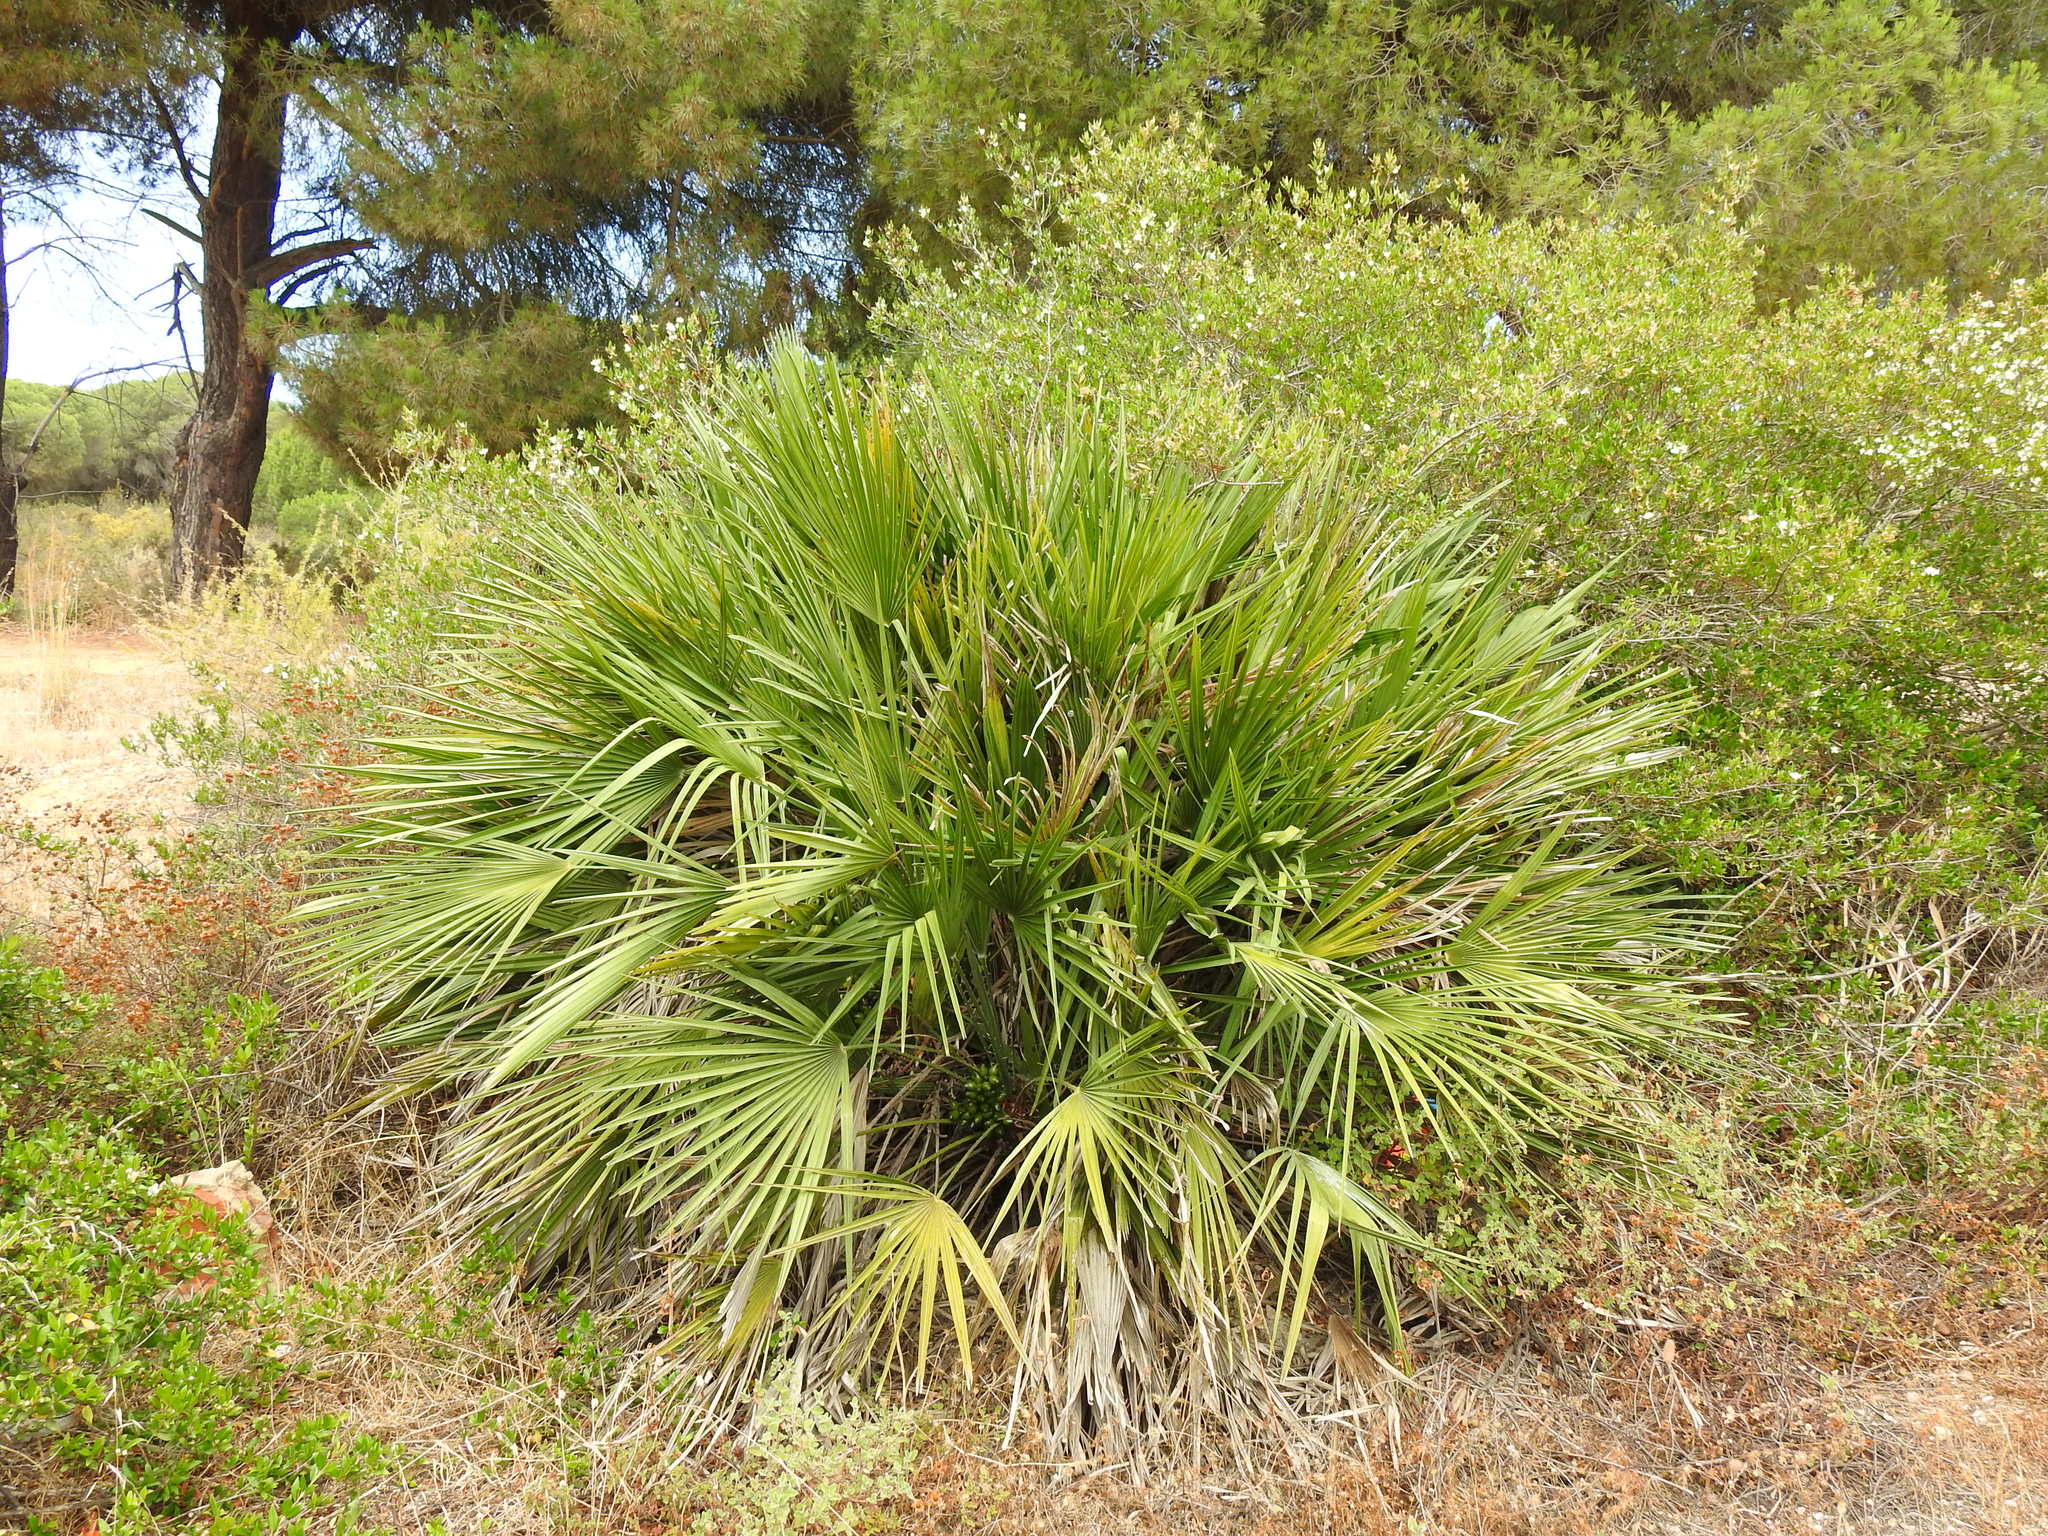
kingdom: Plantae
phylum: Tracheophyta
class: Liliopsida
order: Arecales
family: Arecaceae
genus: Chamaerops
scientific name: Chamaerops humilis
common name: Dwarf fan palm
